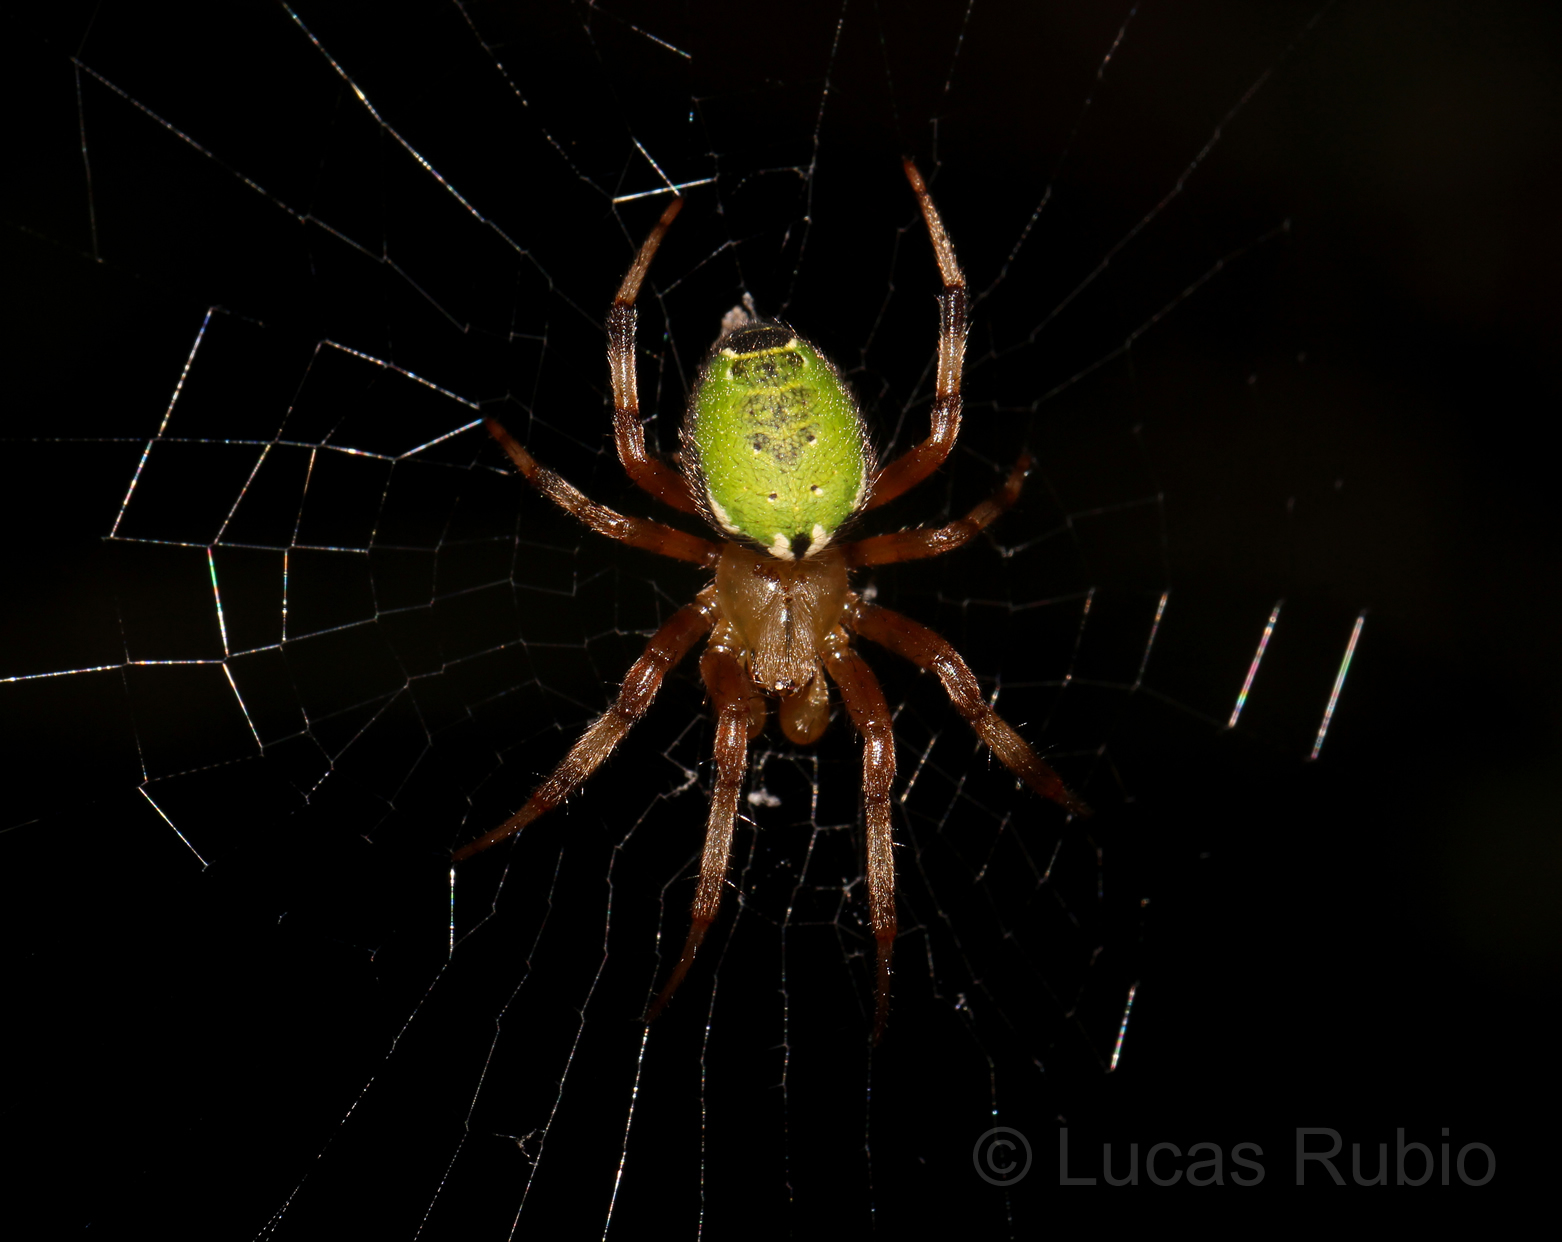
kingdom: Animalia
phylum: Arthropoda
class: Arachnida
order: Araneae
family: Araneidae
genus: Araneus
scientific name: Araneus venatrix
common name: Orb weavers
